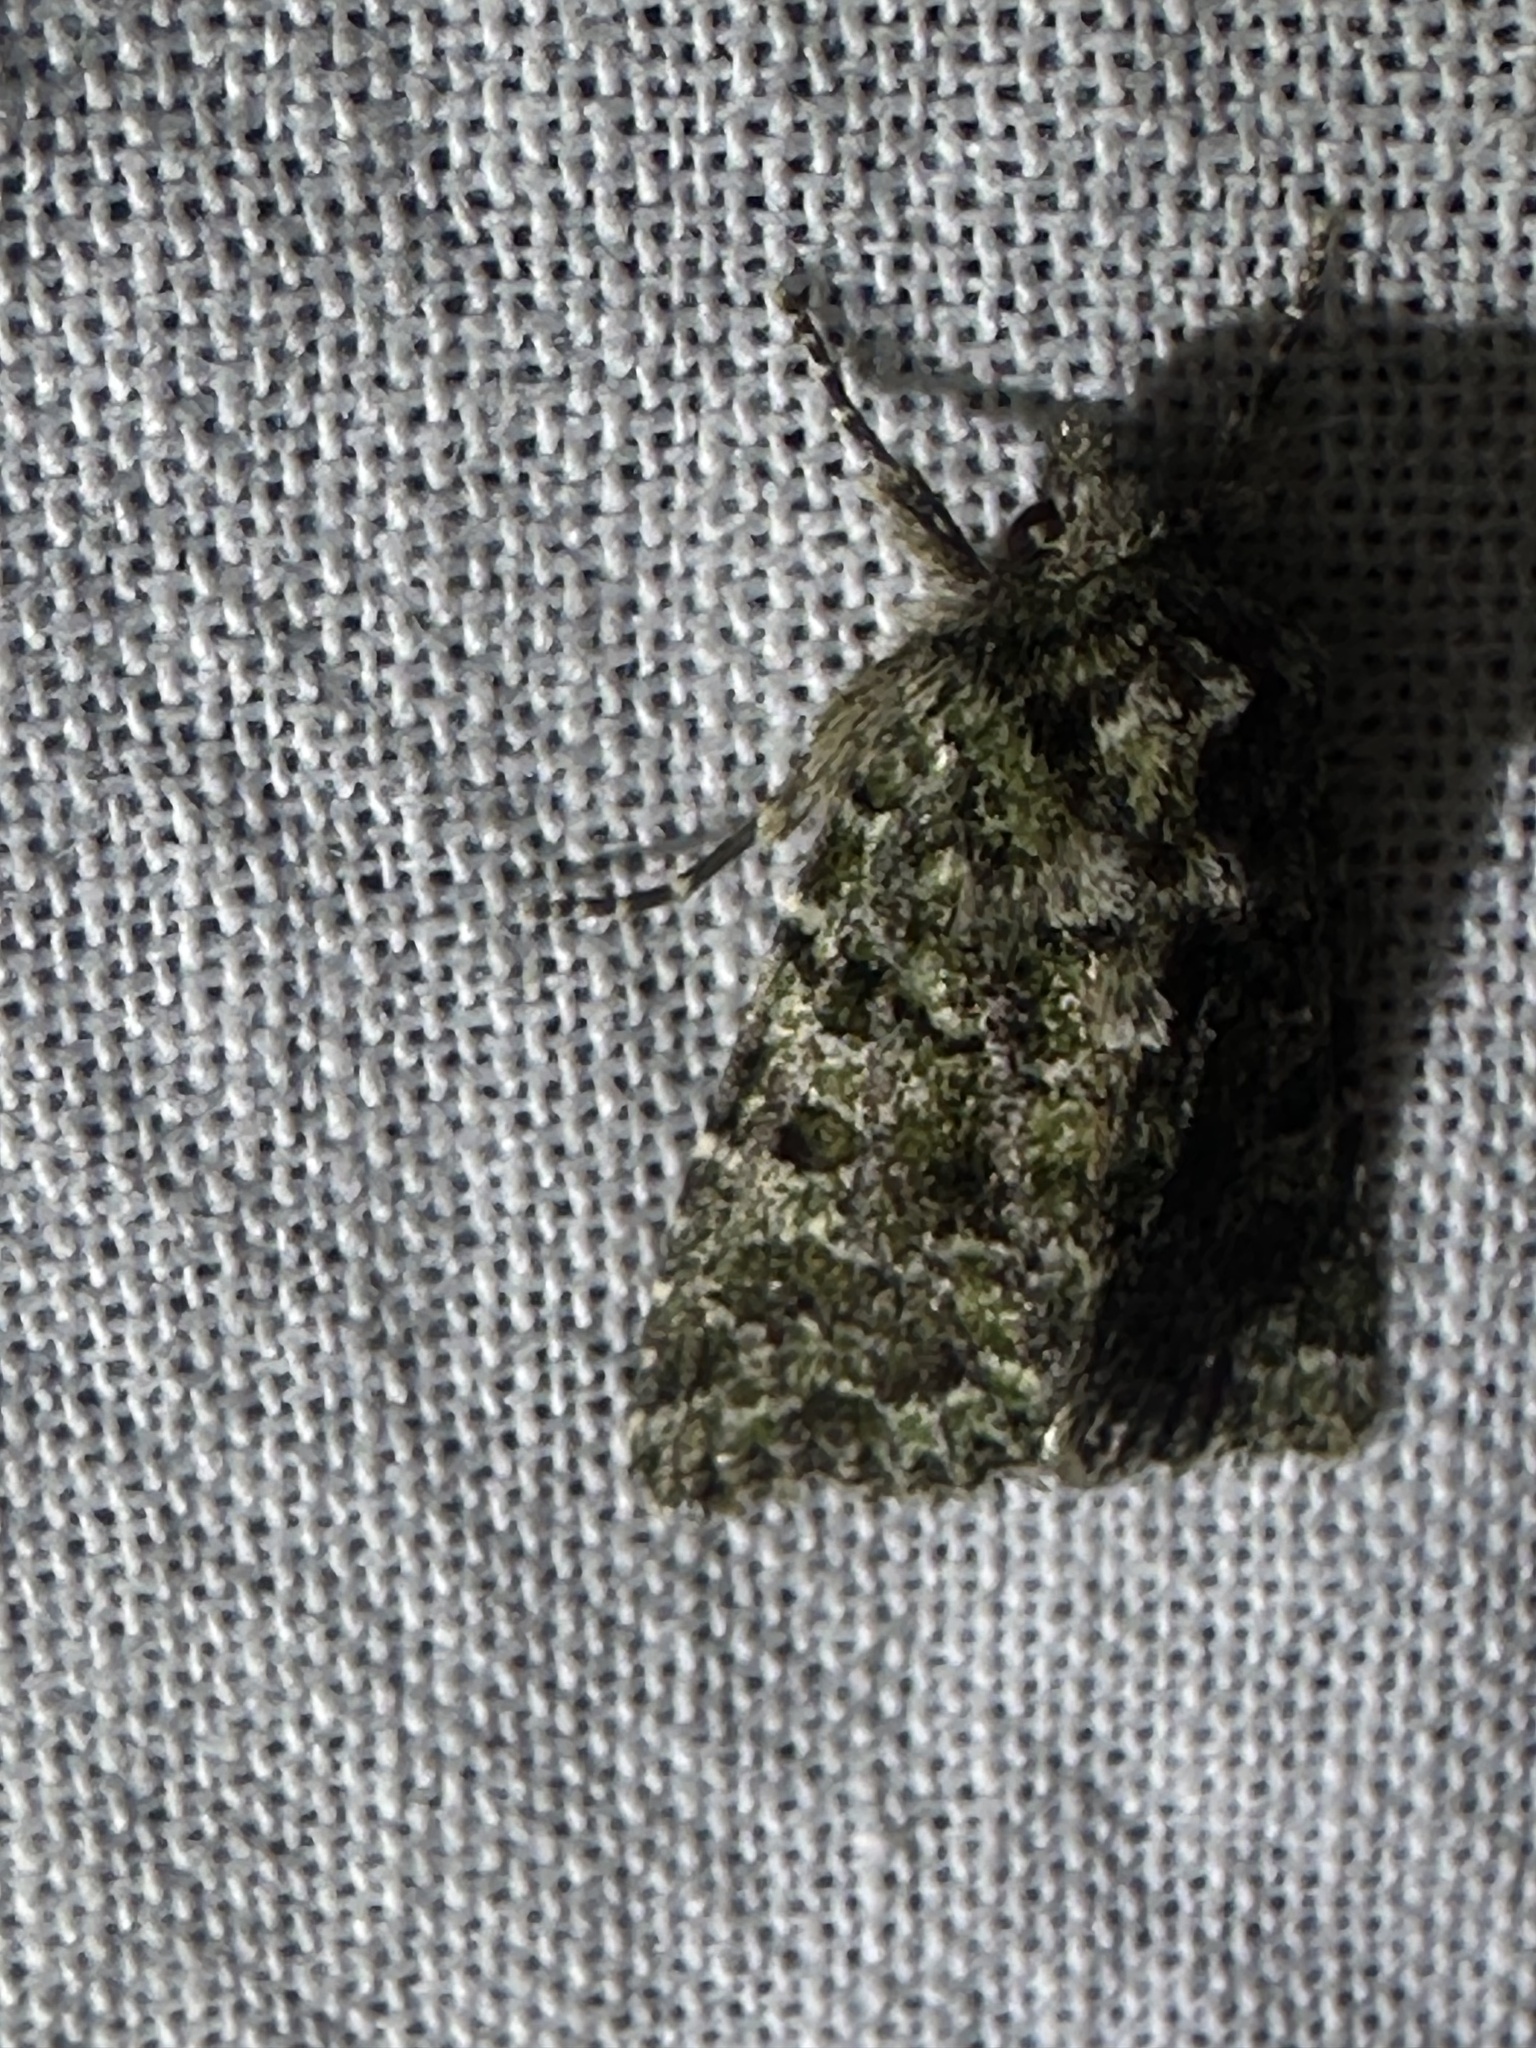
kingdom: Animalia
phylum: Arthropoda
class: Insecta
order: Lepidoptera
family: Noctuidae
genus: Aseptis
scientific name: Aseptis marina
